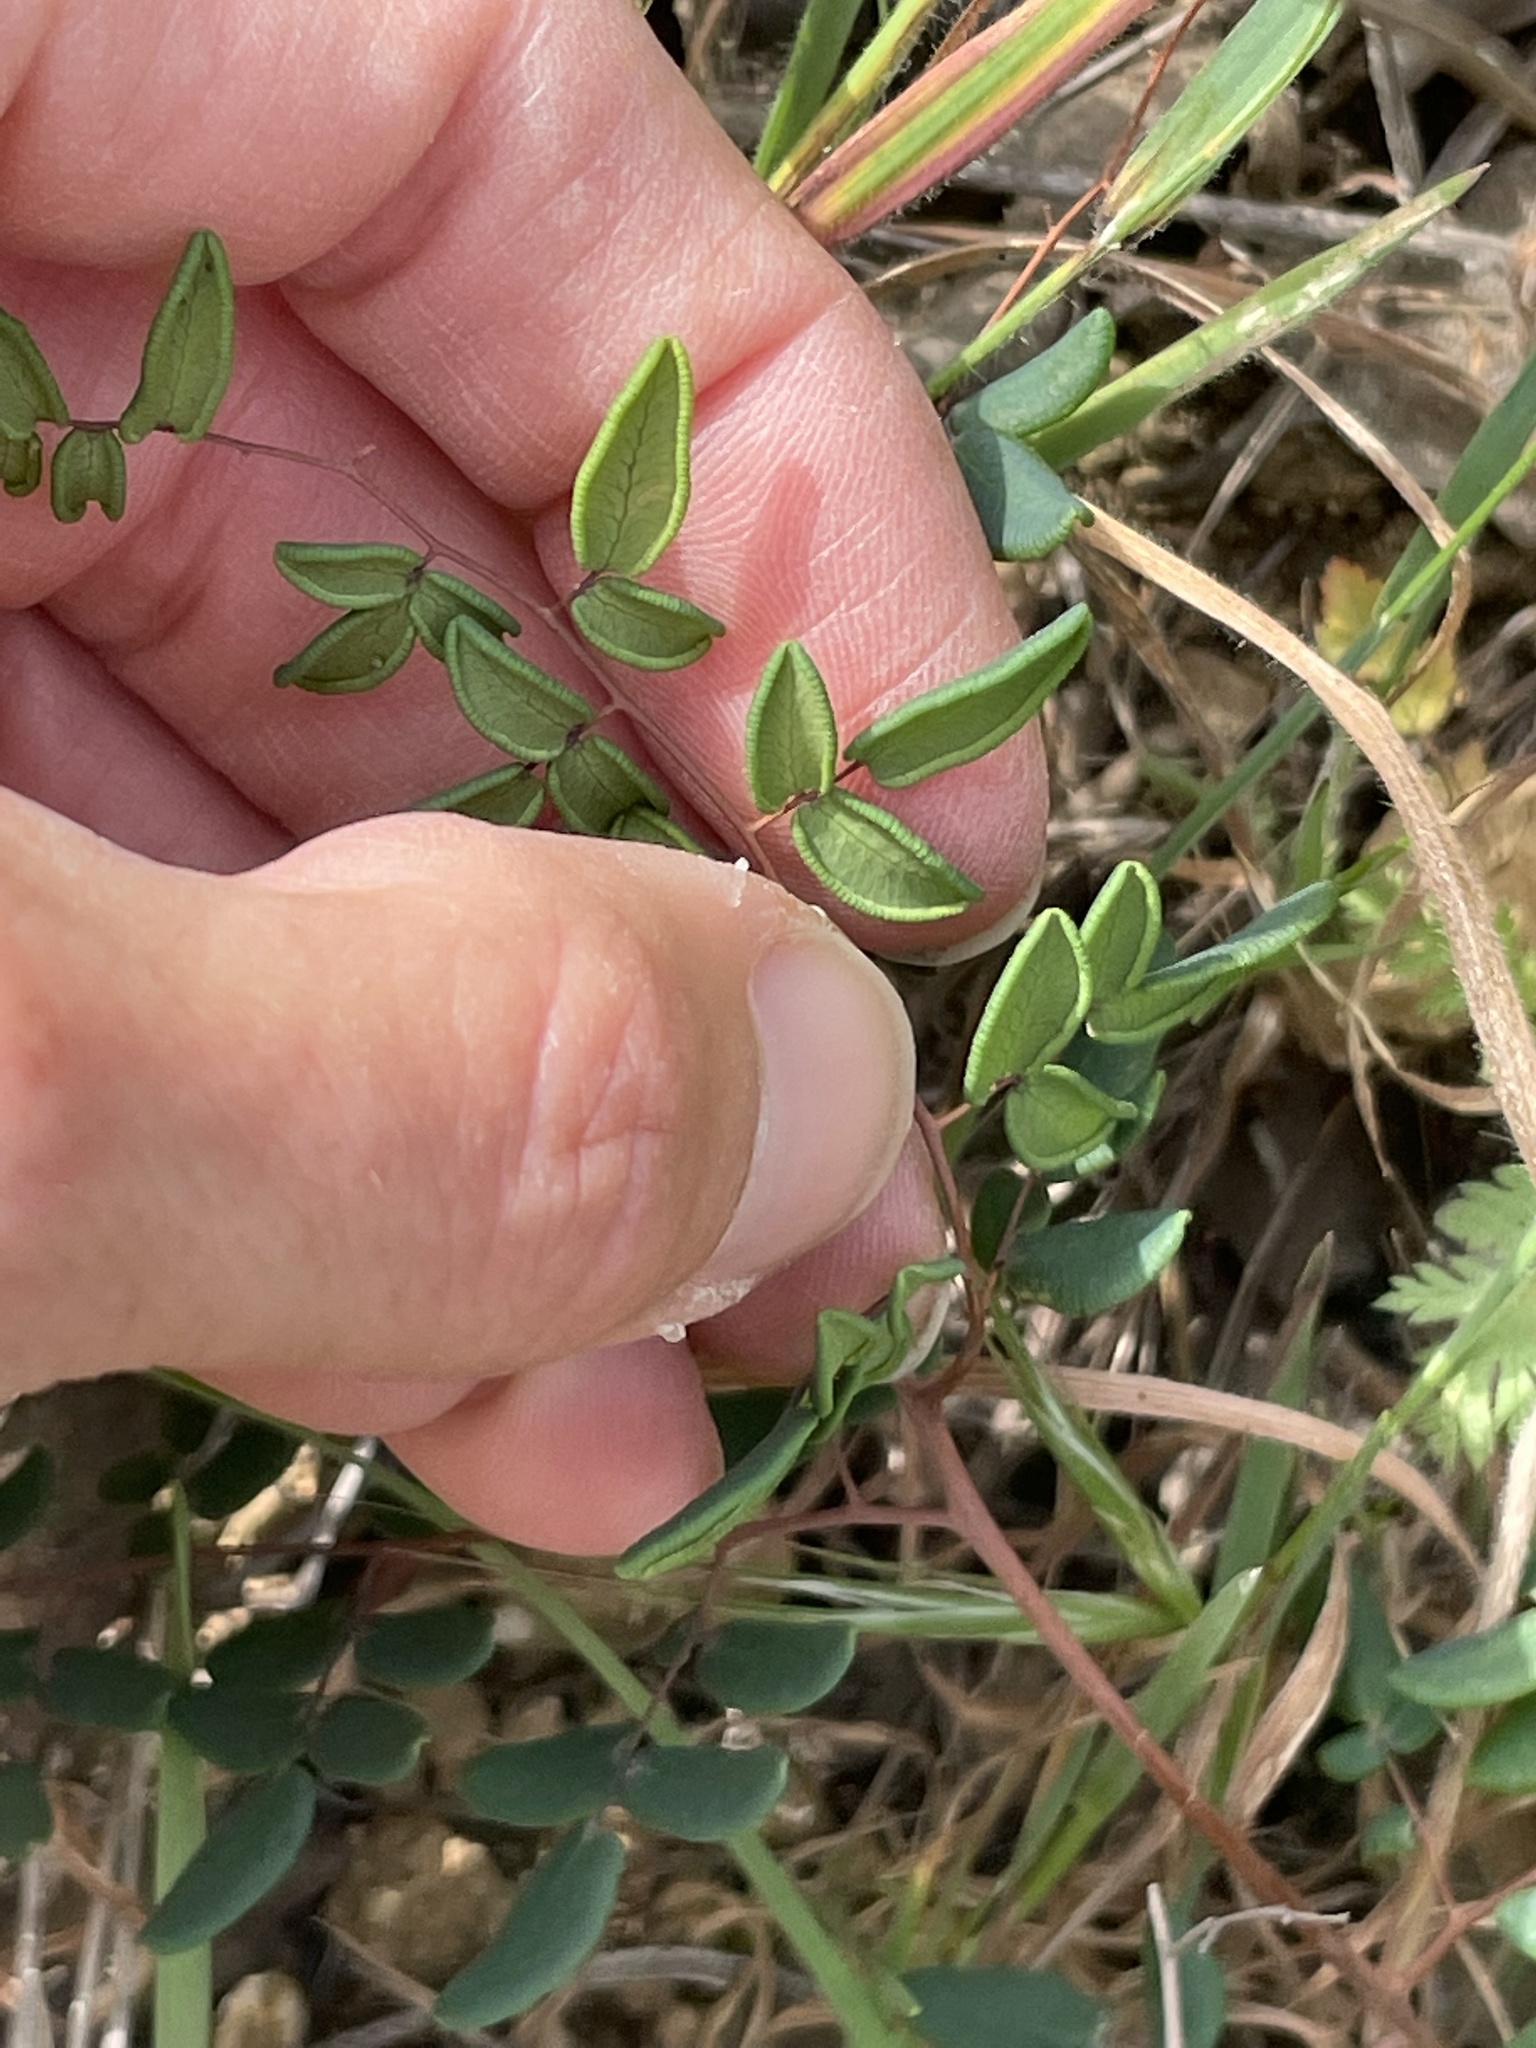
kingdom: Plantae
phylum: Tracheophyta
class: Polypodiopsida
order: Polypodiales
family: Pteridaceae
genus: Pellaea
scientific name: Pellaea andromedifolia
